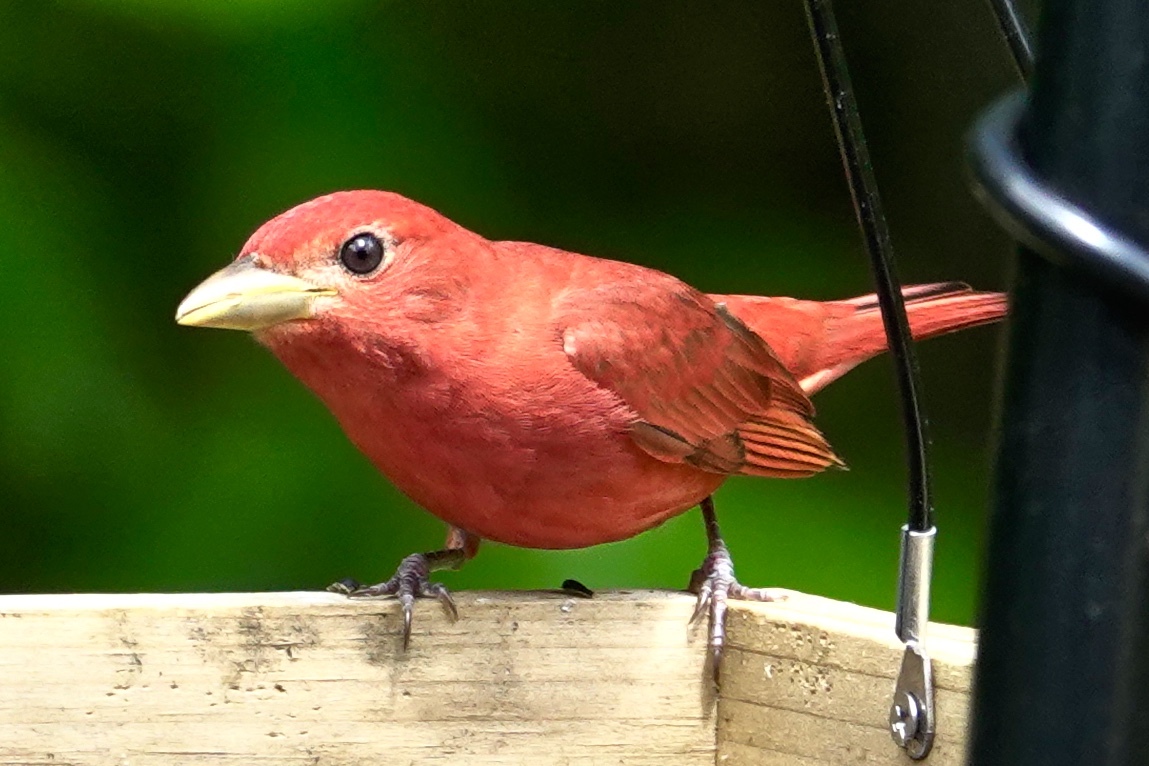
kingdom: Animalia
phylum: Chordata
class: Aves
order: Passeriformes
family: Cardinalidae
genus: Piranga
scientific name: Piranga rubra
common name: Summer tanager
